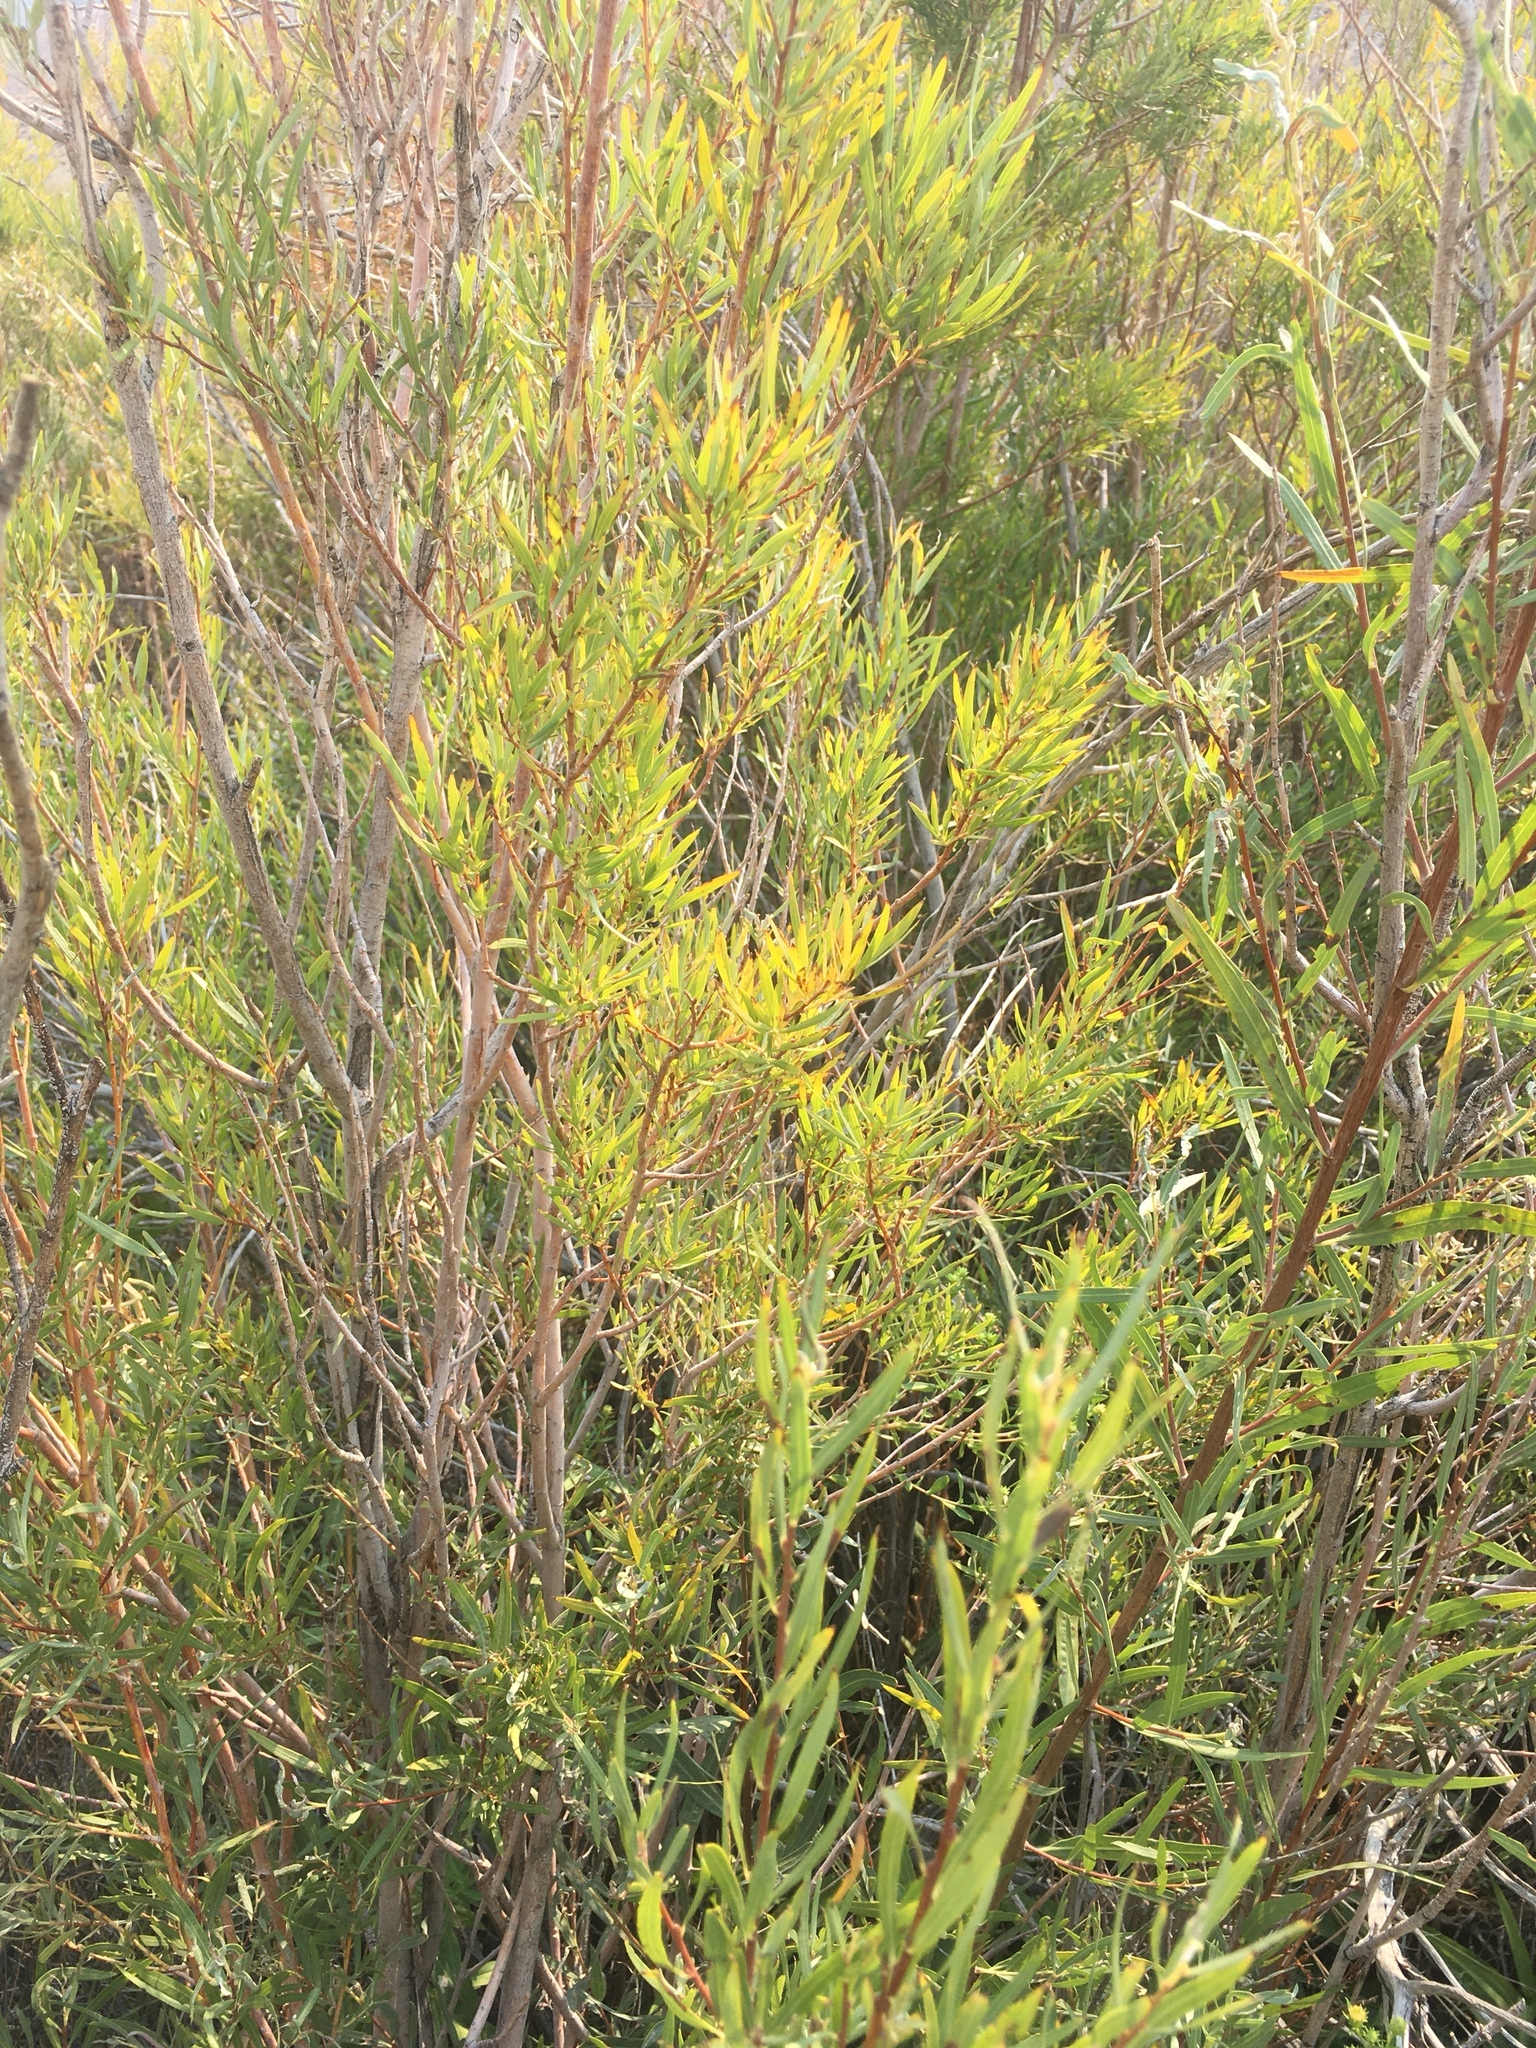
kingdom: Plantae
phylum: Tracheophyta
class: Magnoliopsida
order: Malpighiales
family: Salicaceae
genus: Salix
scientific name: Salix exigua
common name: Coyote willow
